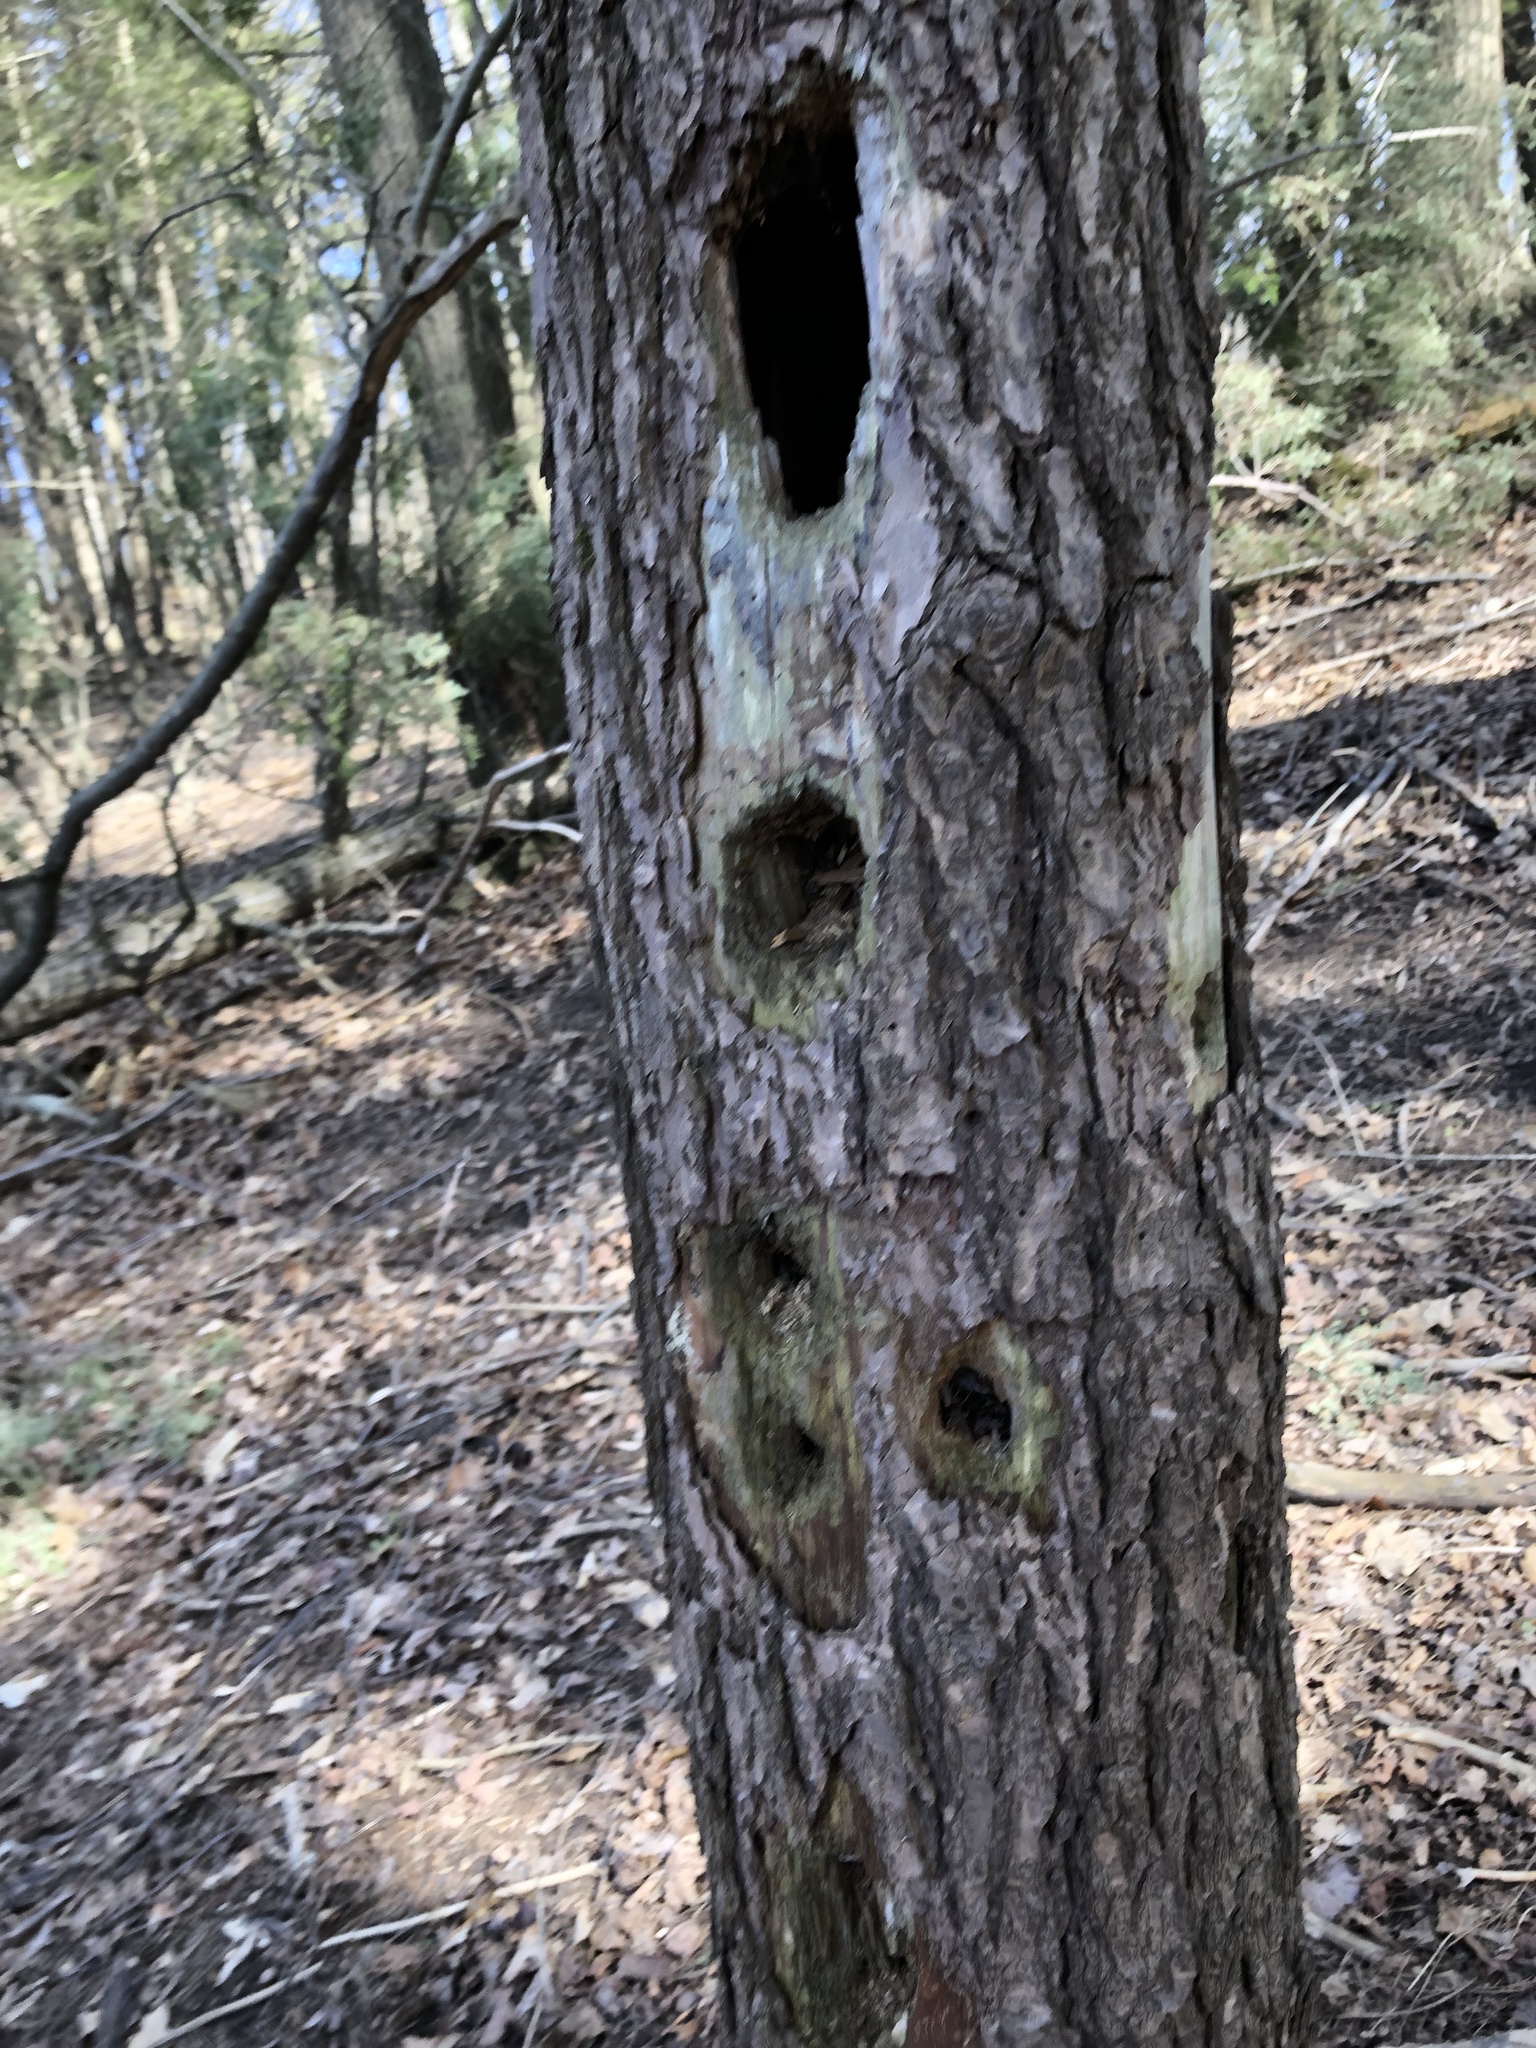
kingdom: Animalia
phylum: Chordata
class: Aves
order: Piciformes
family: Picidae
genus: Dryocopus
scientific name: Dryocopus pileatus
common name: Pileated woodpecker
